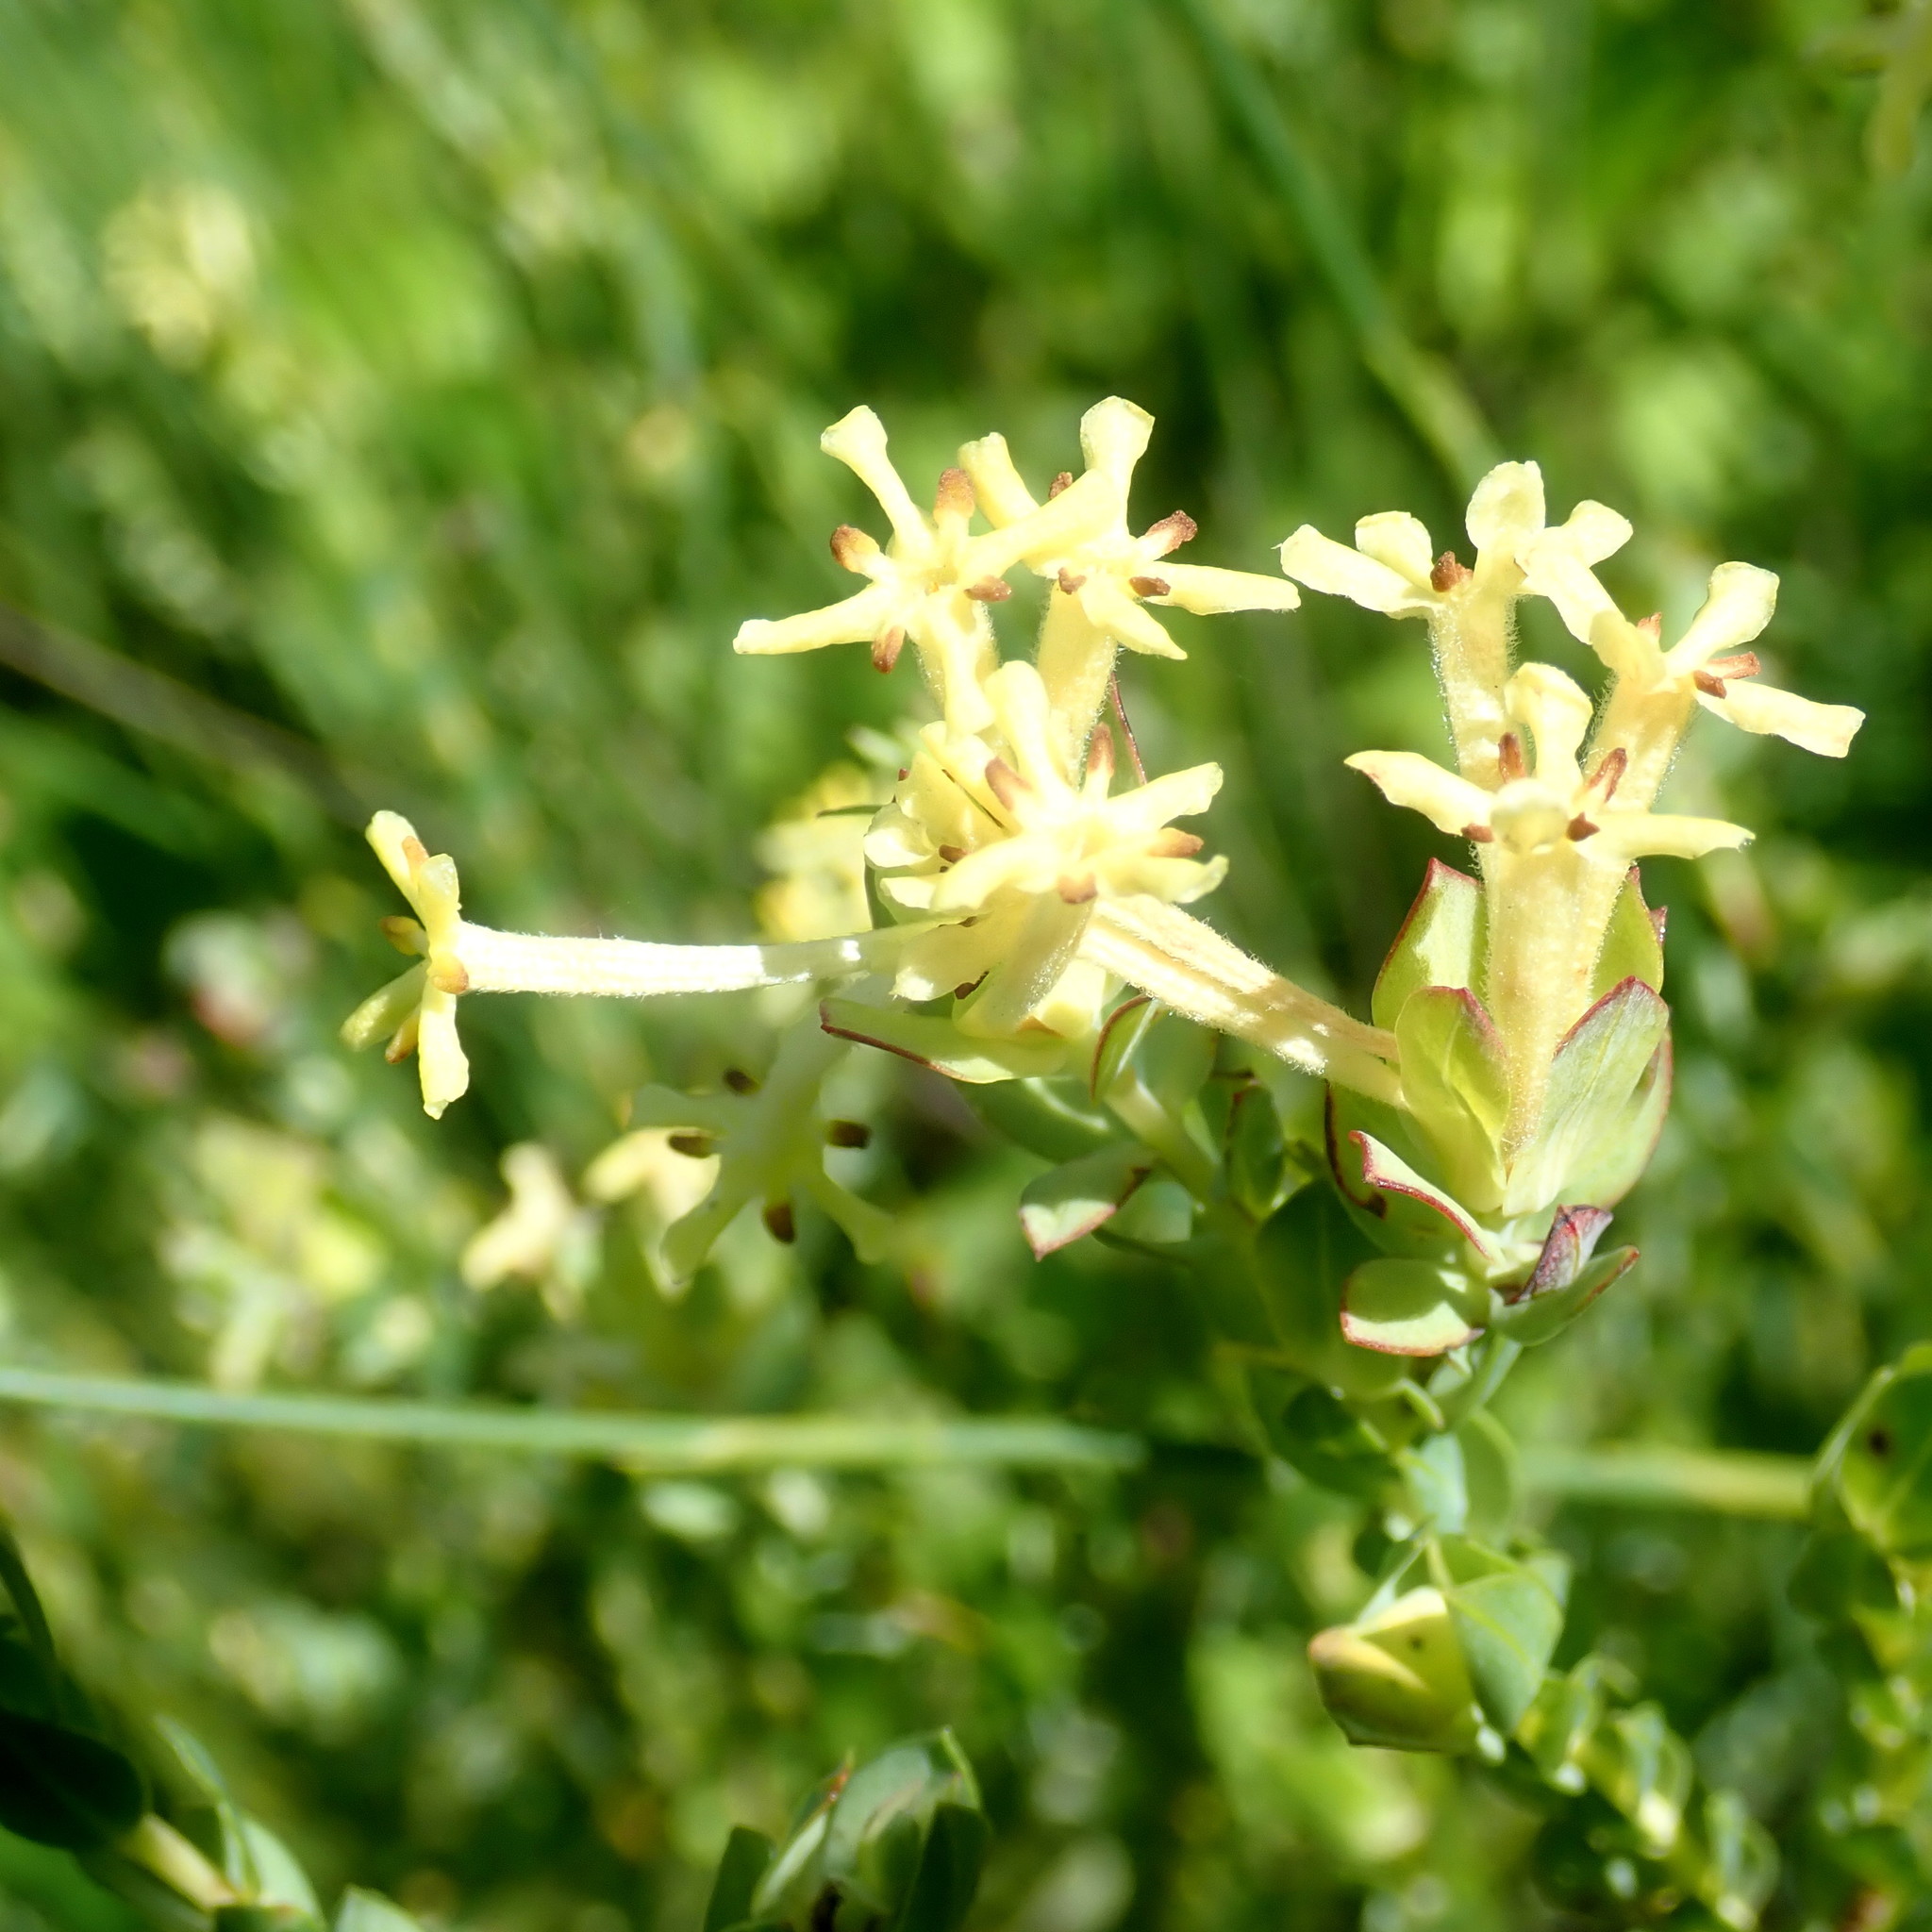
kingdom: Plantae
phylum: Tracheophyta
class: Magnoliopsida
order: Malvales
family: Thymelaeaceae
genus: Gnidia
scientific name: Gnidia oppositifolia
